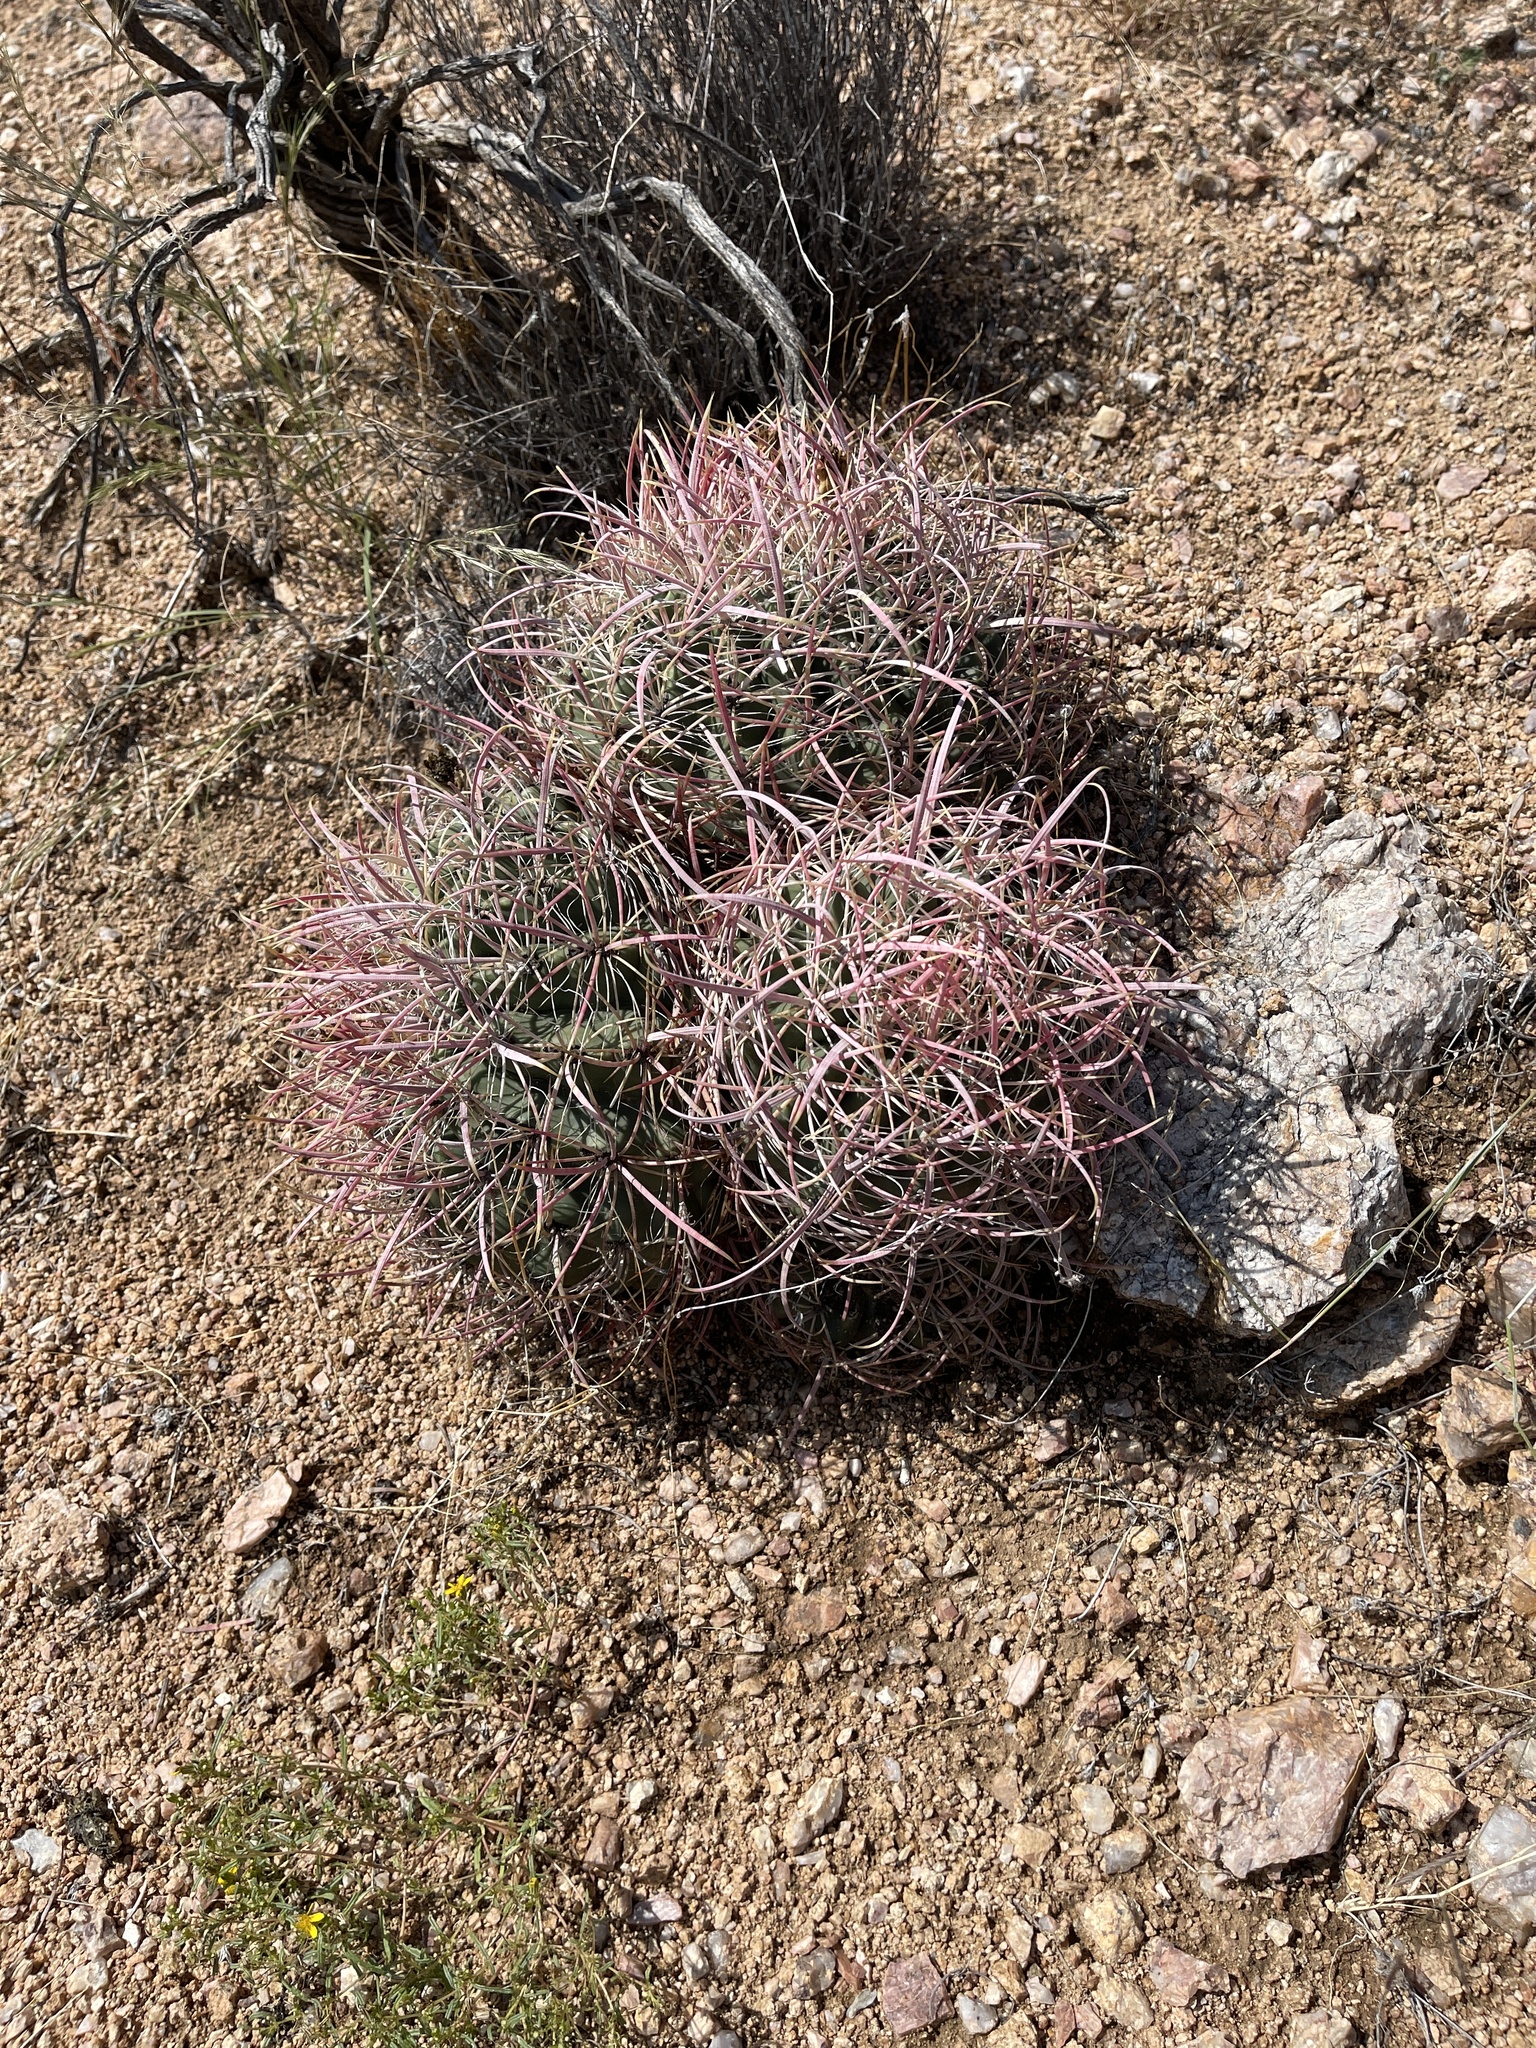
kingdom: Plantae
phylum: Tracheophyta
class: Magnoliopsida
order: Caryophyllales
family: Cactaceae
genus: Ferocactus
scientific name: Ferocactus cylindraceus
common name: California barrel cactus
